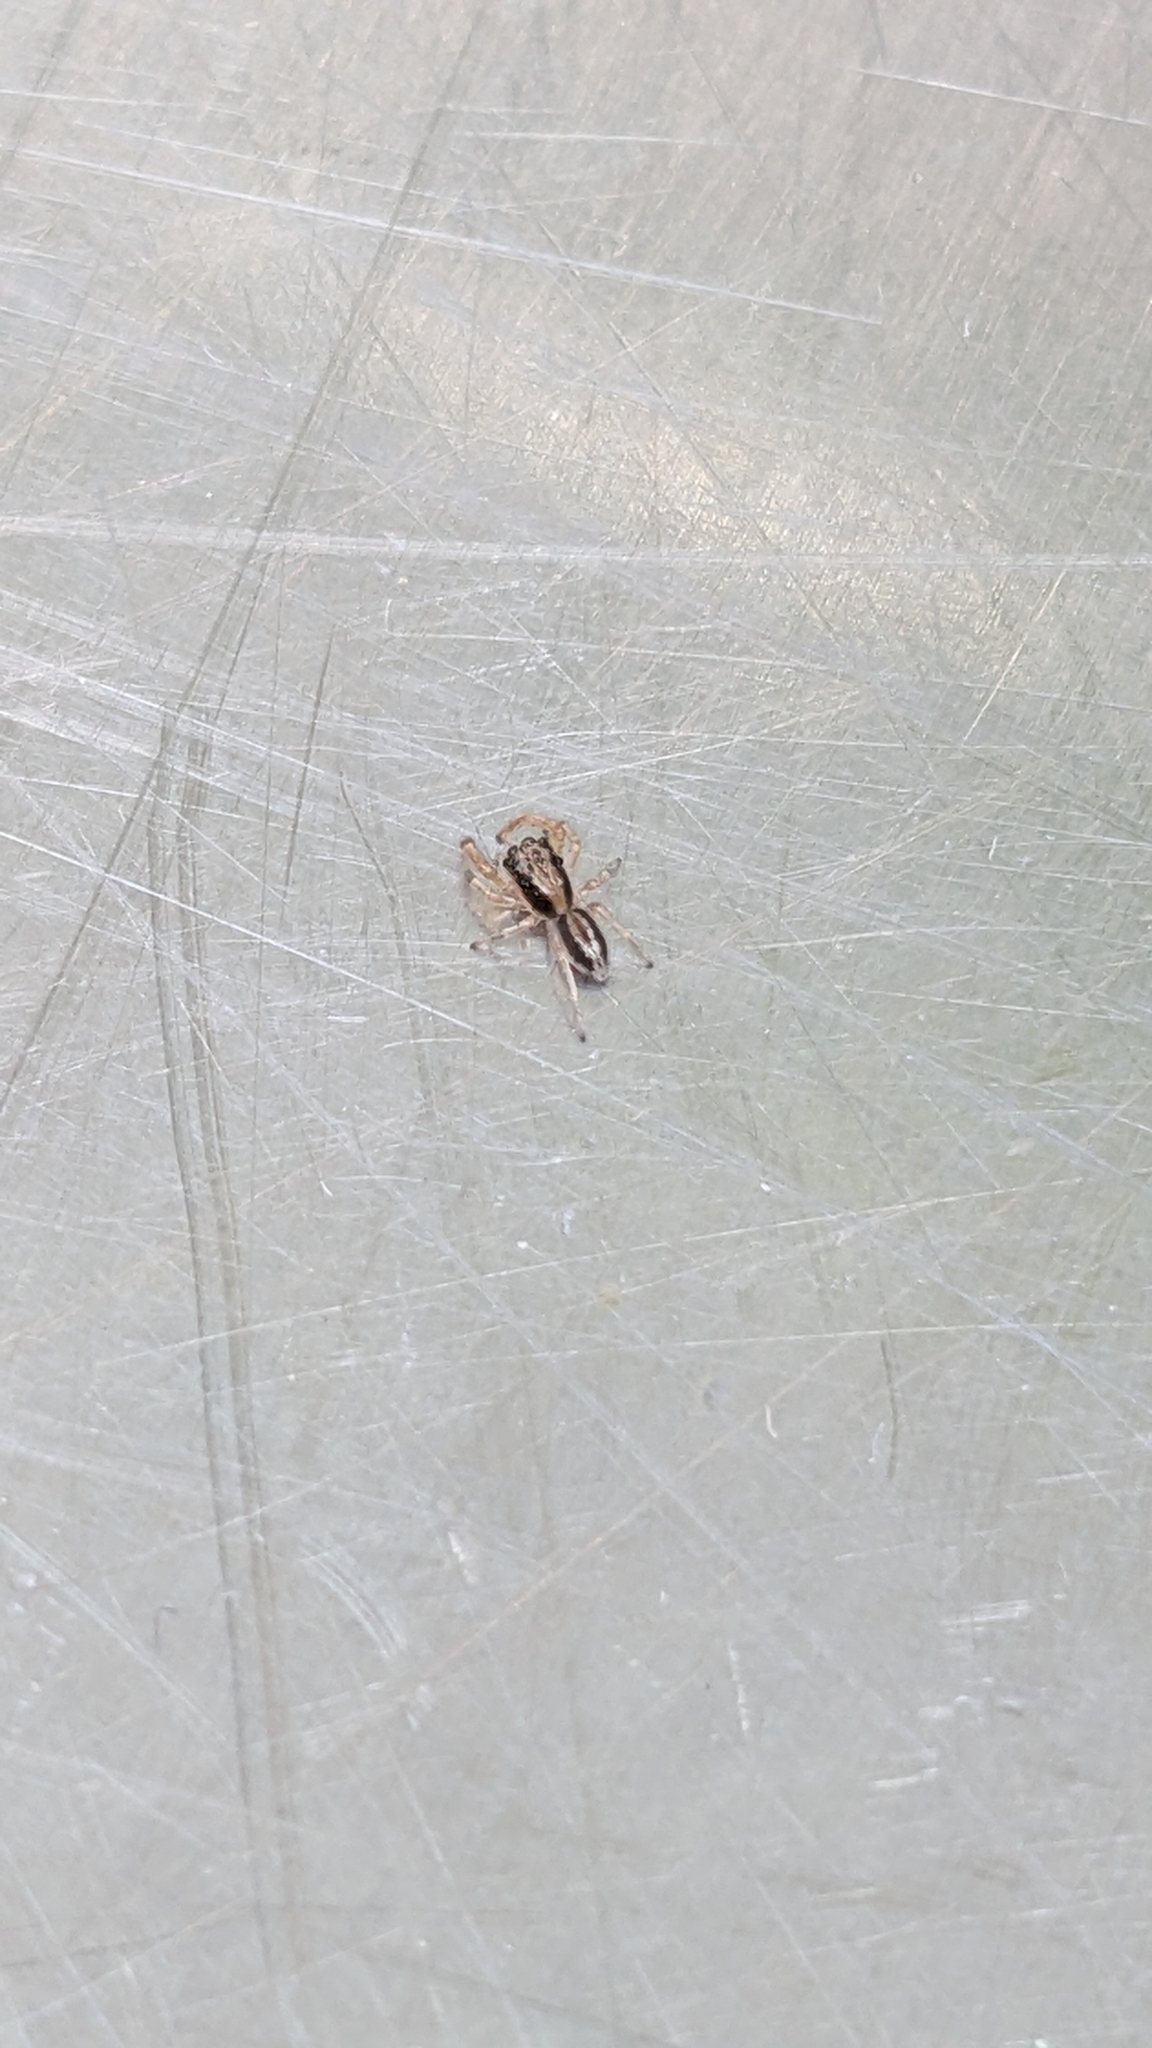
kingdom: Animalia
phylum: Arthropoda
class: Arachnida
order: Araneae
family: Salticidae
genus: Trite
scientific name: Trite planiceps
